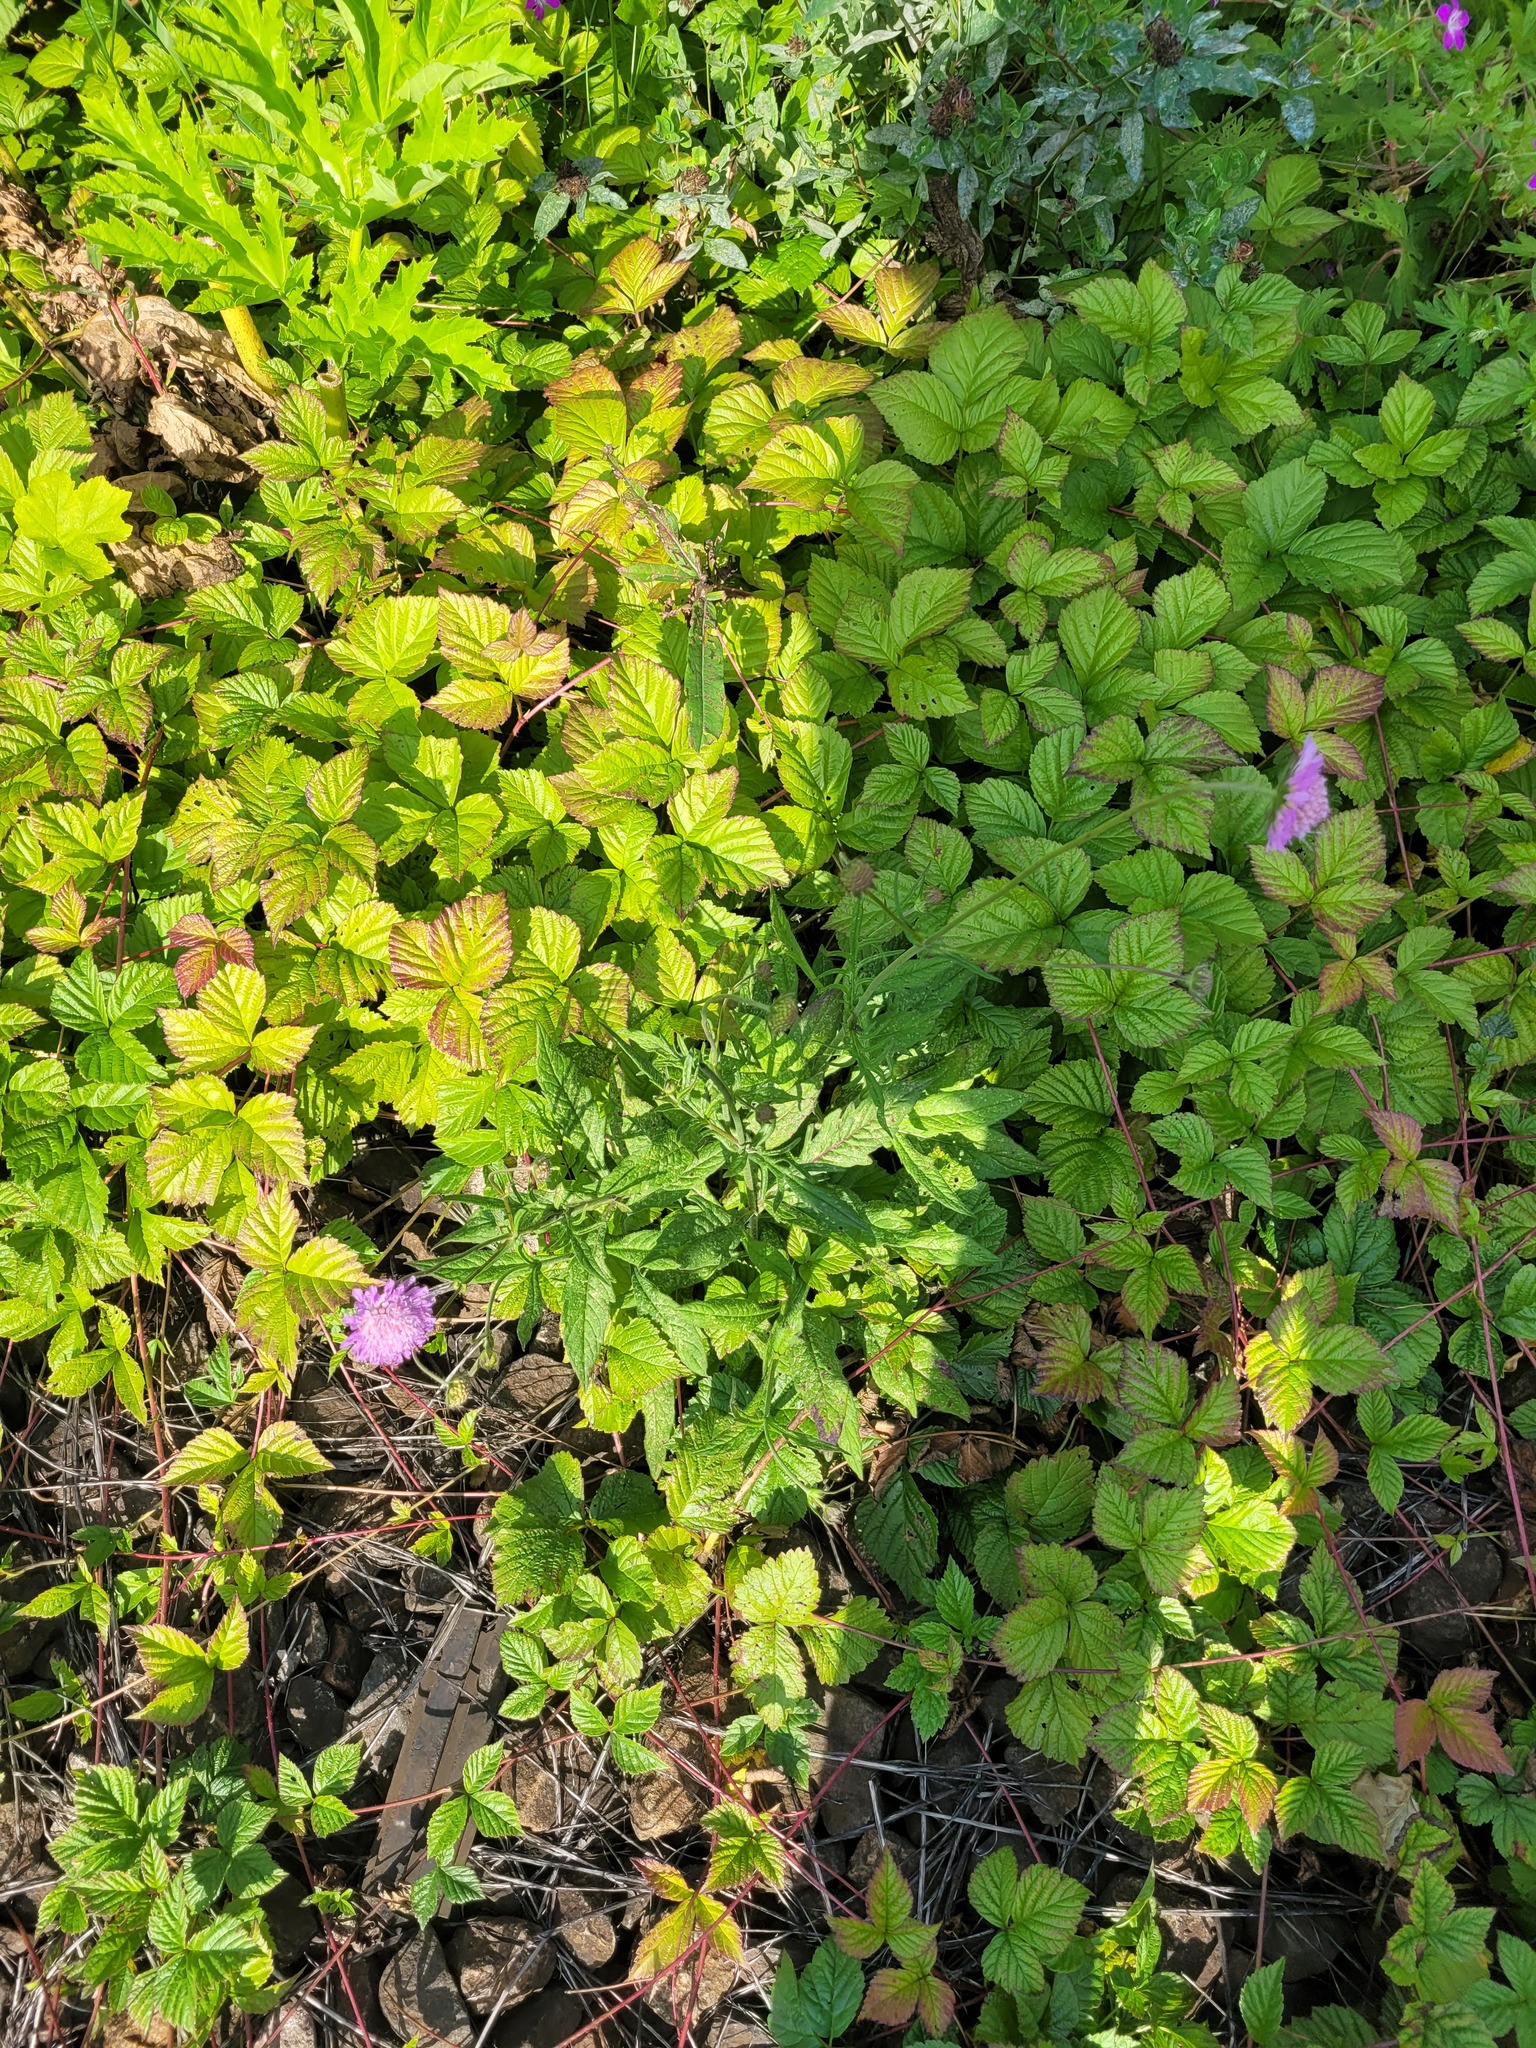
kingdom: Plantae
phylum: Tracheophyta
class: Magnoliopsida
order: Dipsacales
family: Caprifoliaceae
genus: Knautia
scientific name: Knautia arvensis
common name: Field scabiosa
